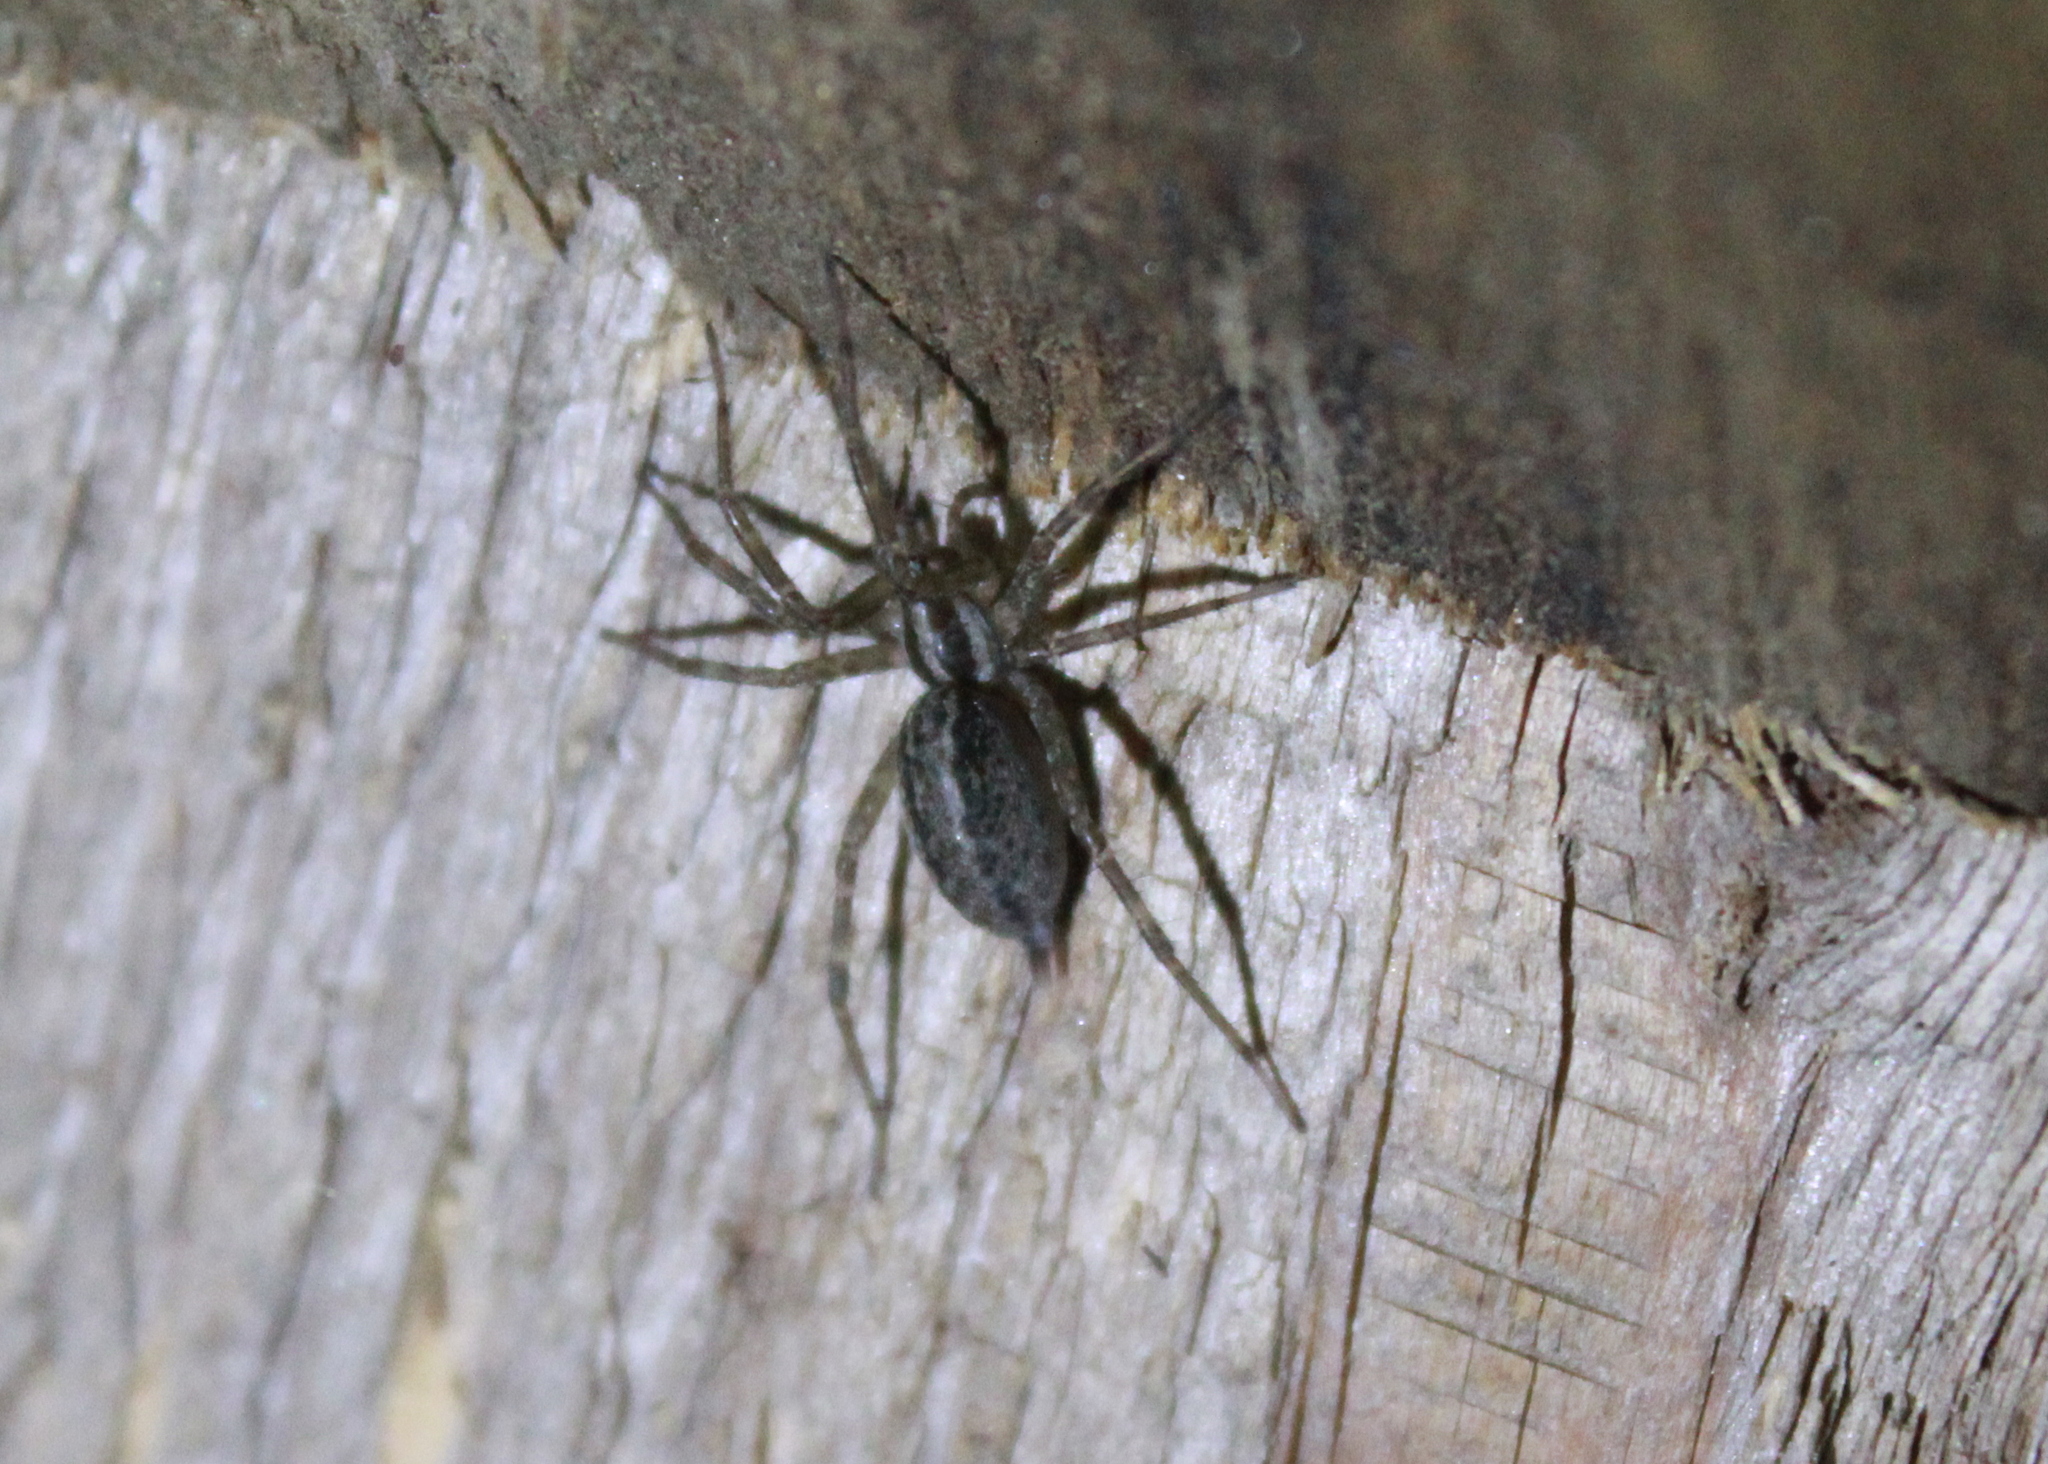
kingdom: Animalia
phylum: Arthropoda
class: Arachnida
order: Araneae
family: Agelenidae
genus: Agelenopsis
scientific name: Agelenopsis
